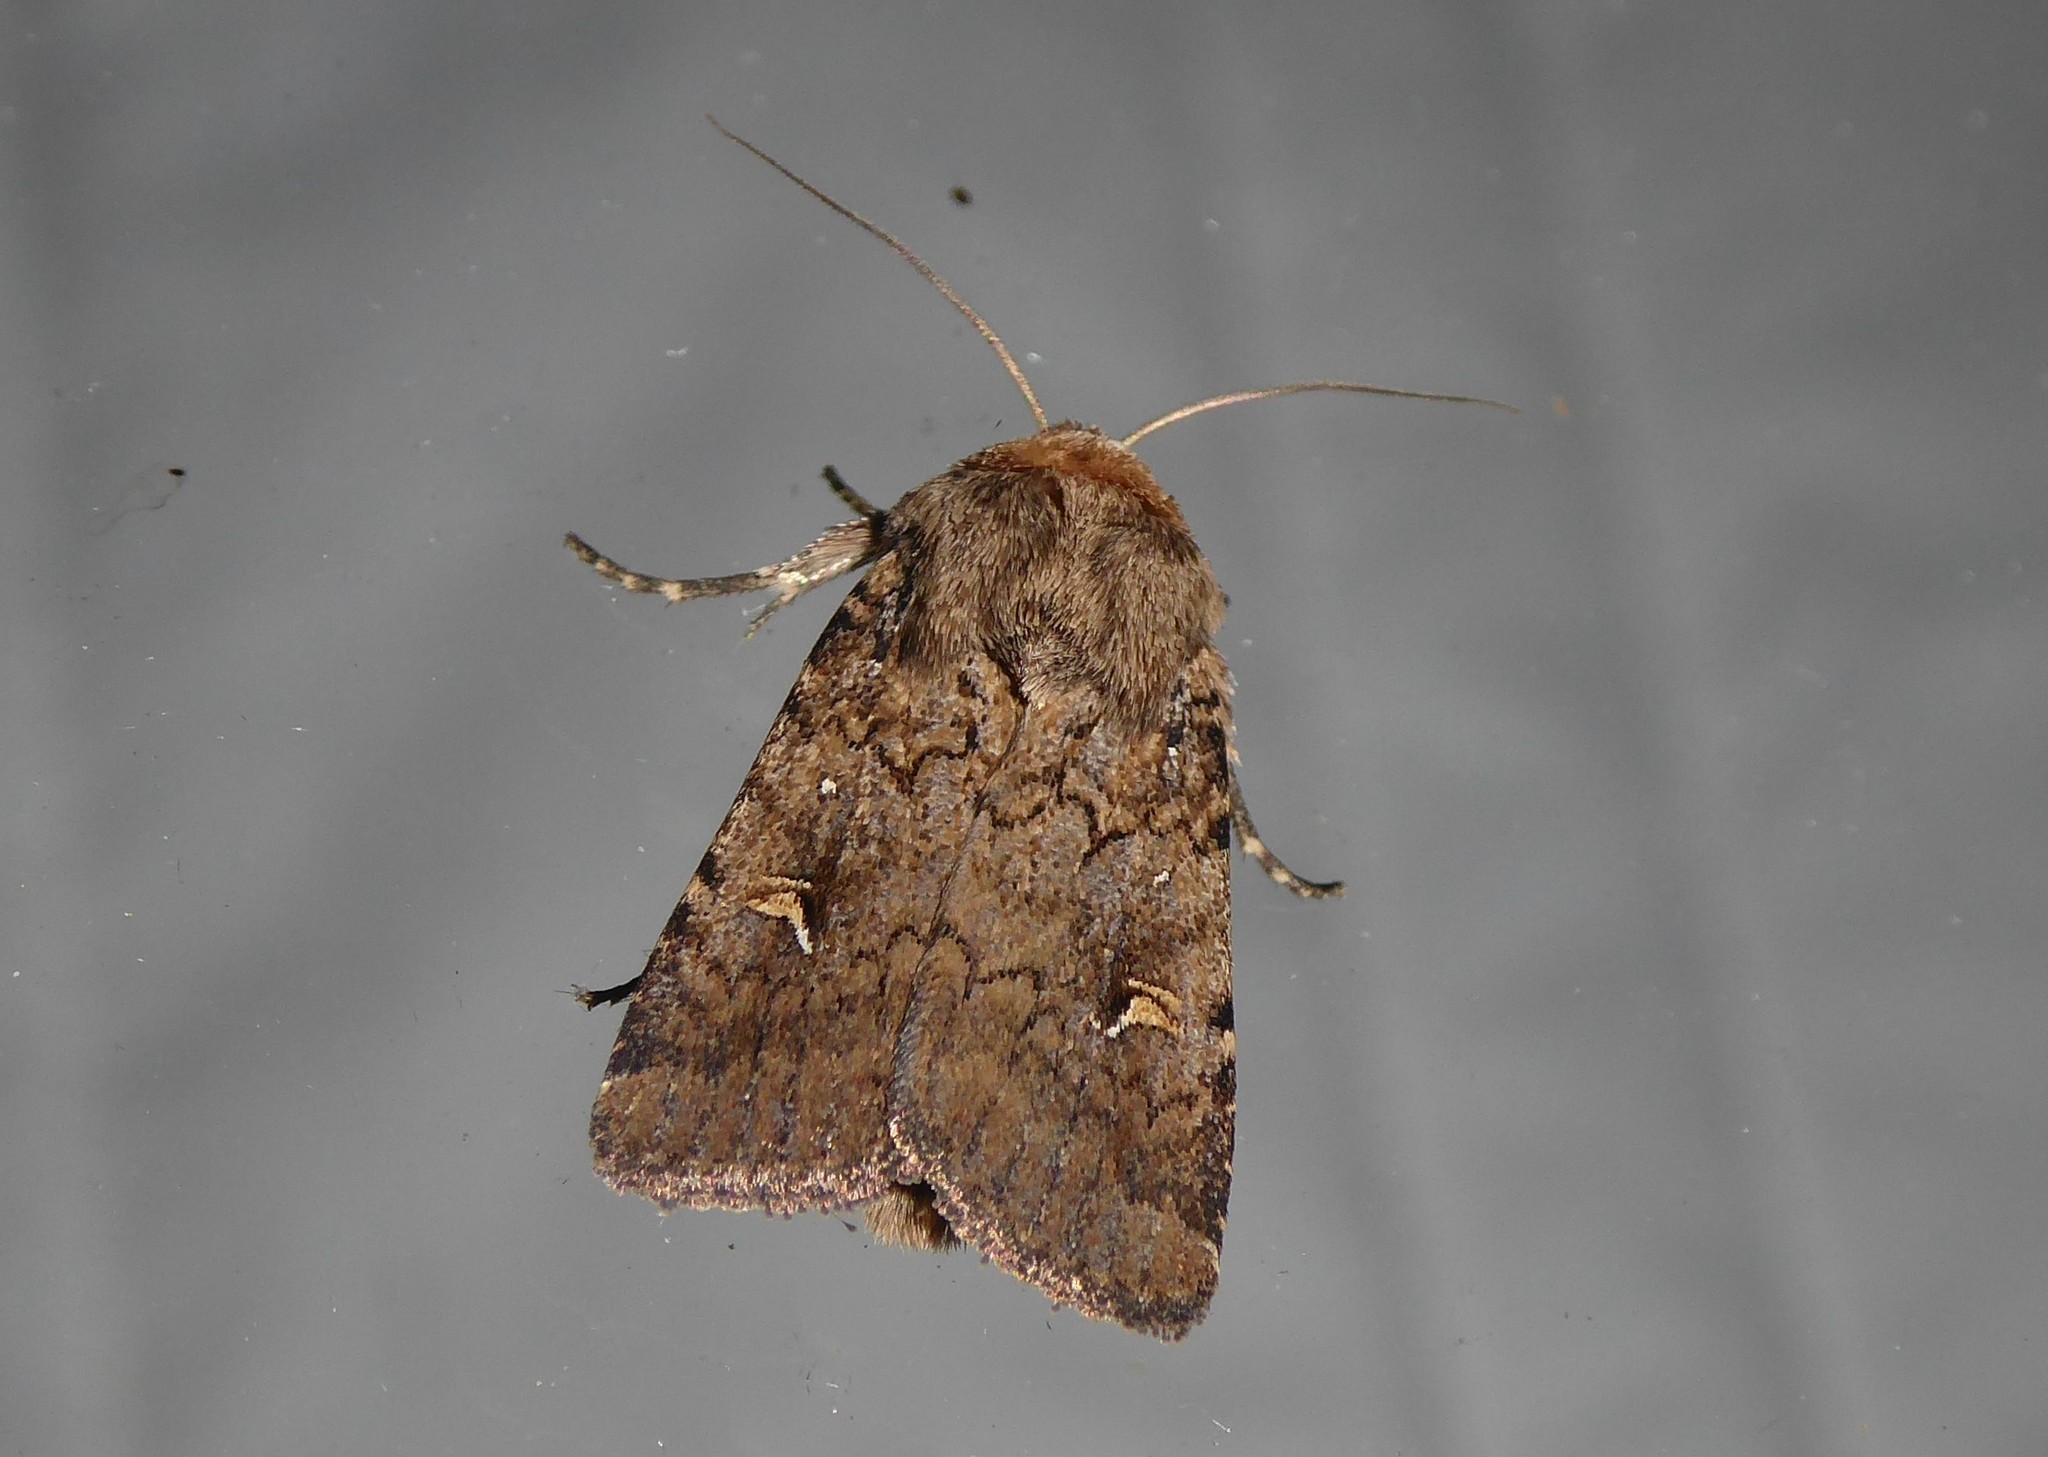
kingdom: Animalia
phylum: Arthropoda
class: Insecta
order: Lepidoptera
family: Noctuidae
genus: Proteuxoa
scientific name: Proteuxoa tetronycha
